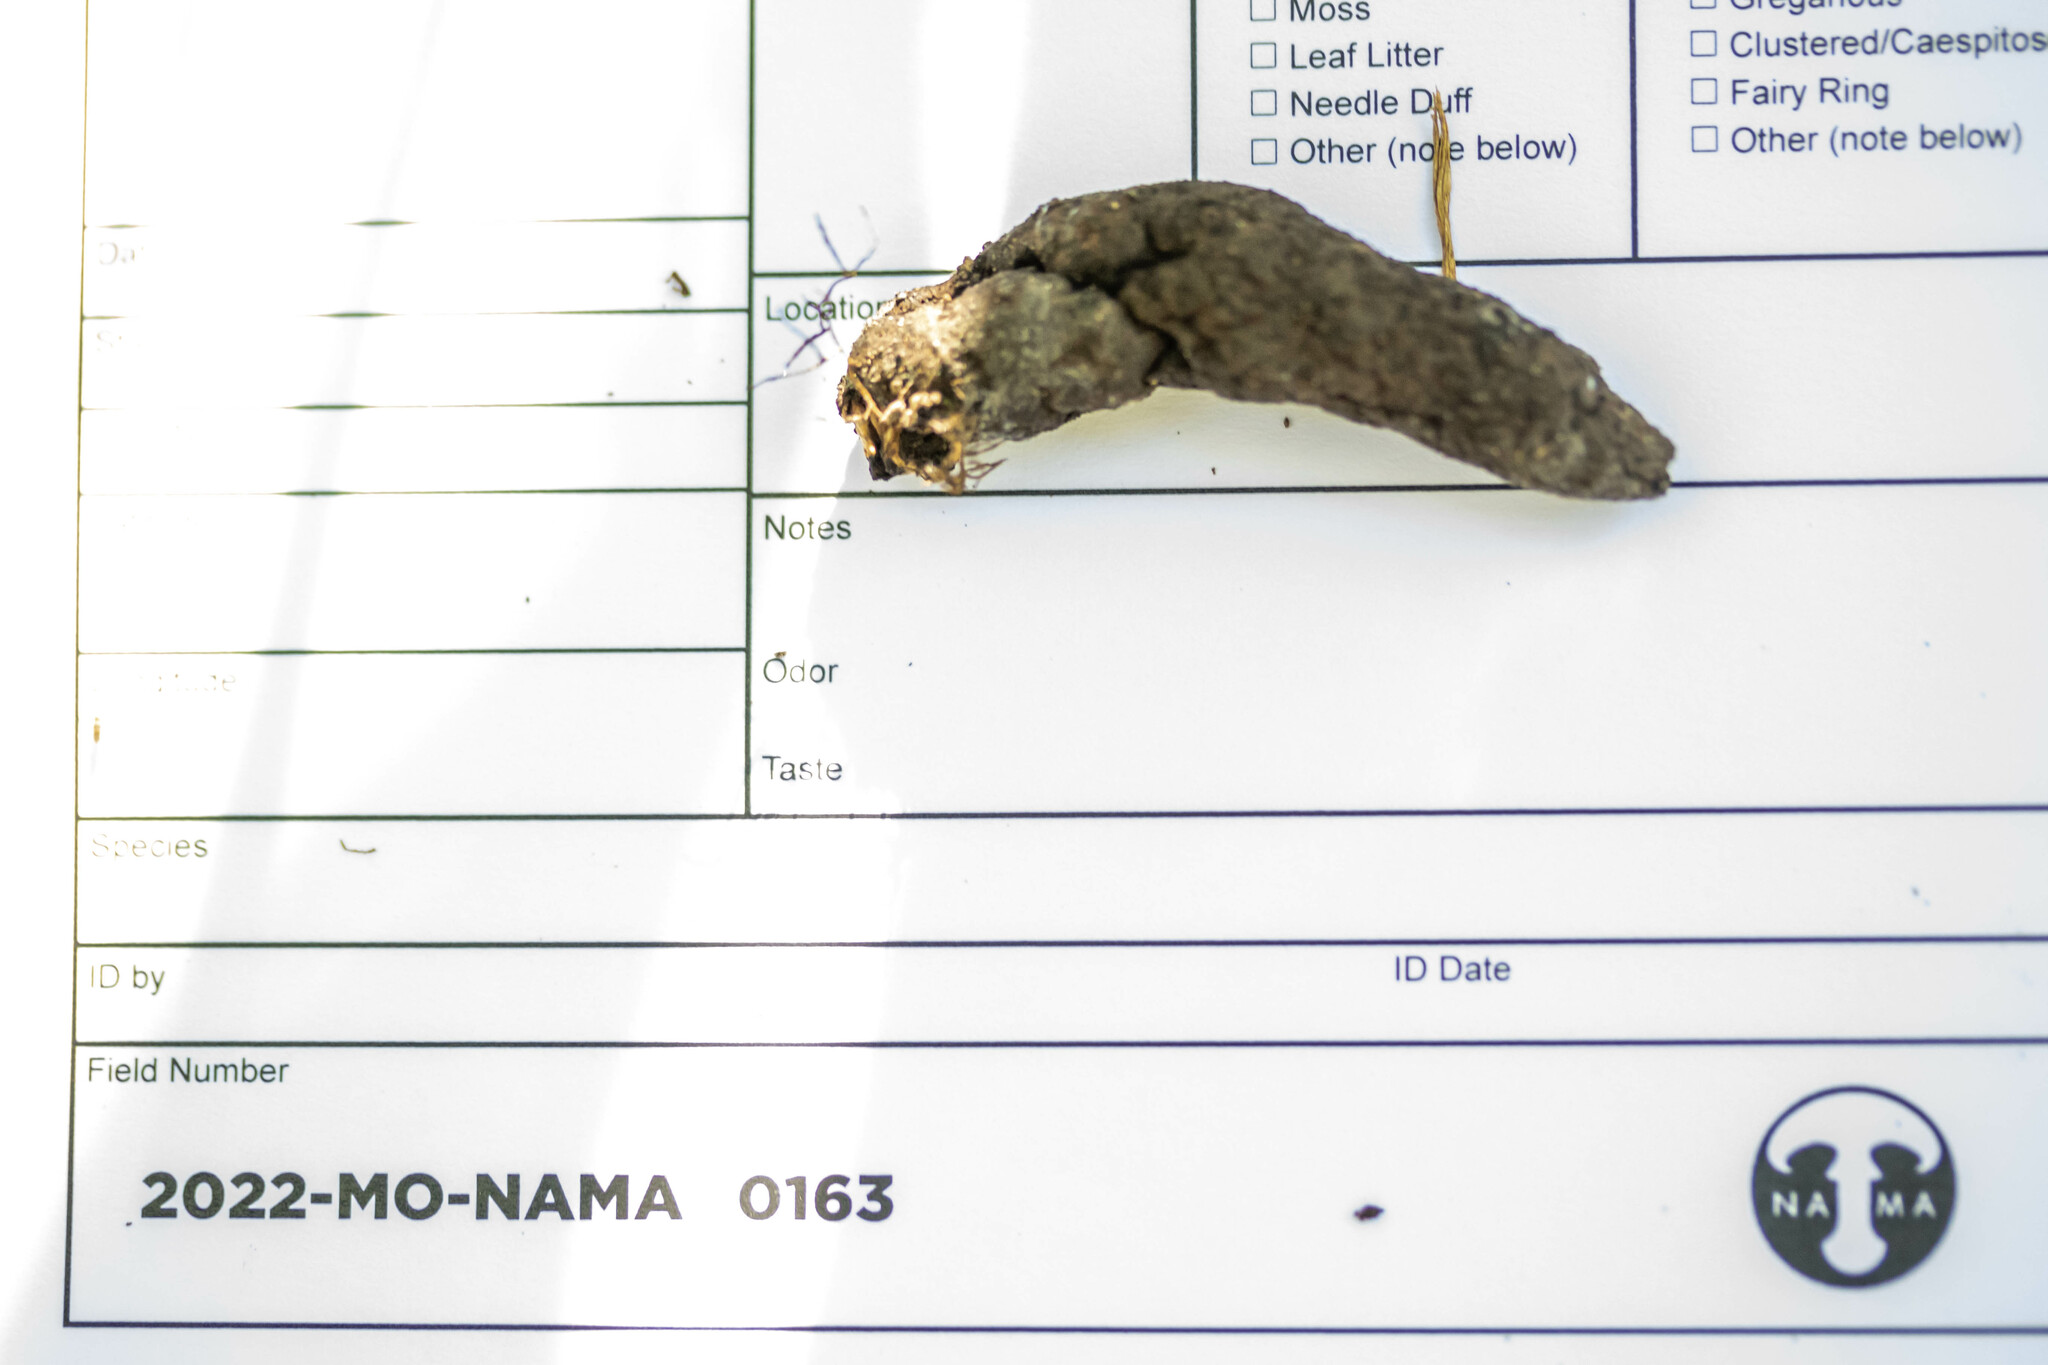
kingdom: Fungi
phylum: Ascomycota
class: Sordariomycetes
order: Xylariales
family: Xylariaceae
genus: Xylaria
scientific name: Xylaria polymorpha
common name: Dead man's fingers
